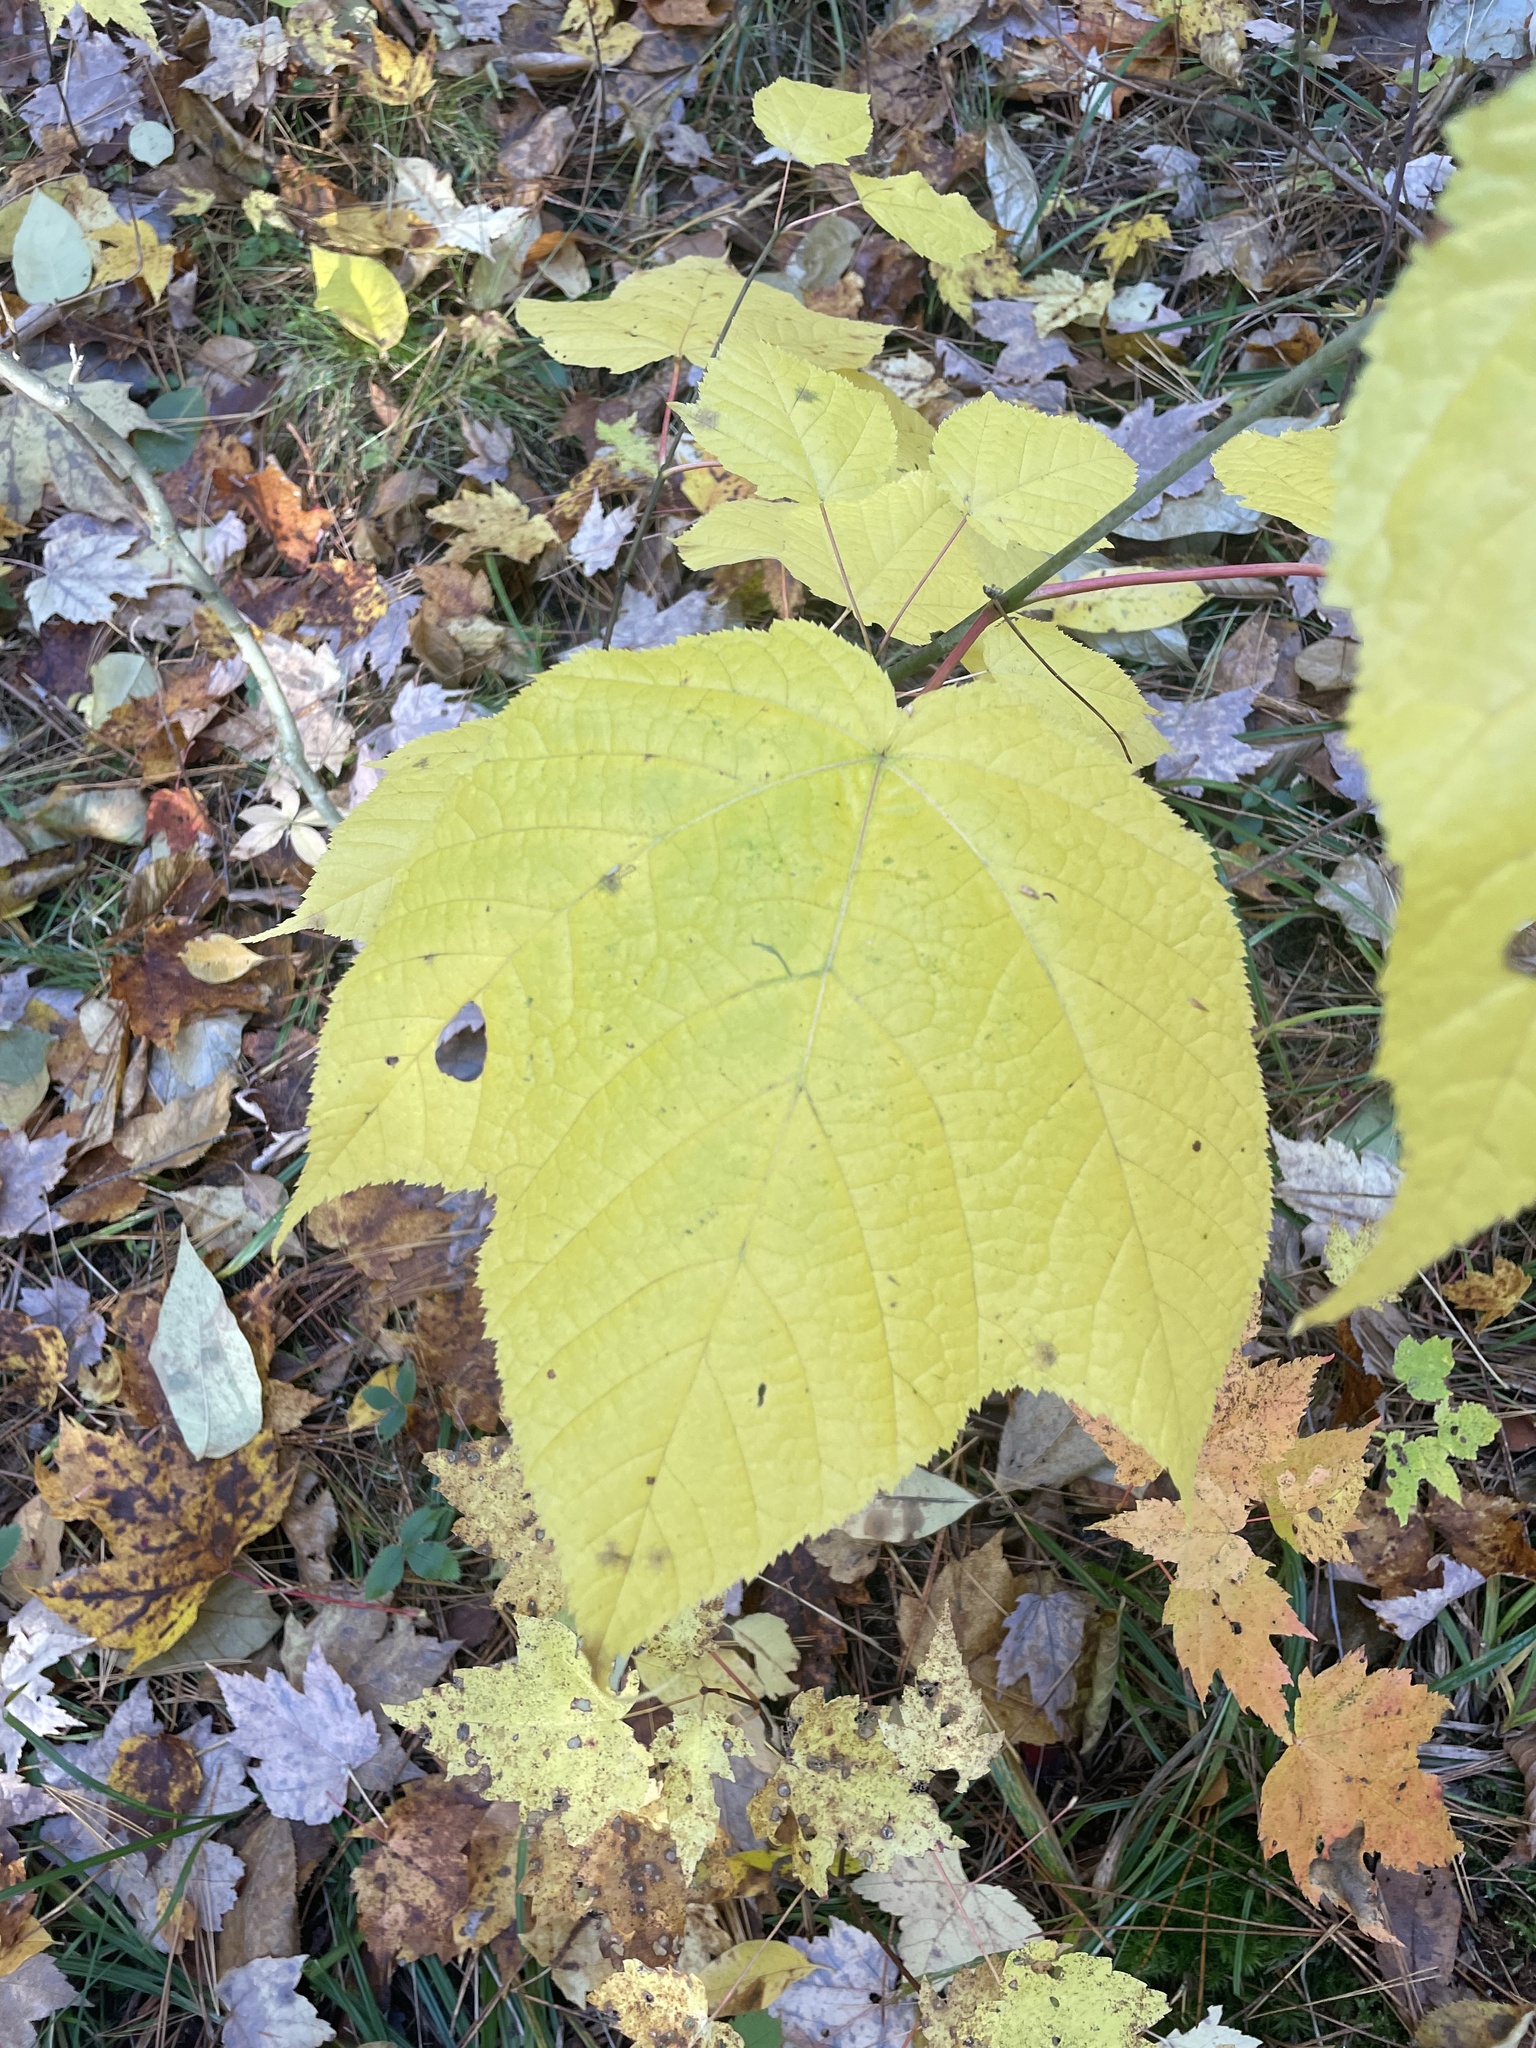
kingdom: Plantae
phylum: Tracheophyta
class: Magnoliopsida
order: Sapindales
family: Sapindaceae
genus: Acer
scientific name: Acer pensylvanicum
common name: Moosewood
